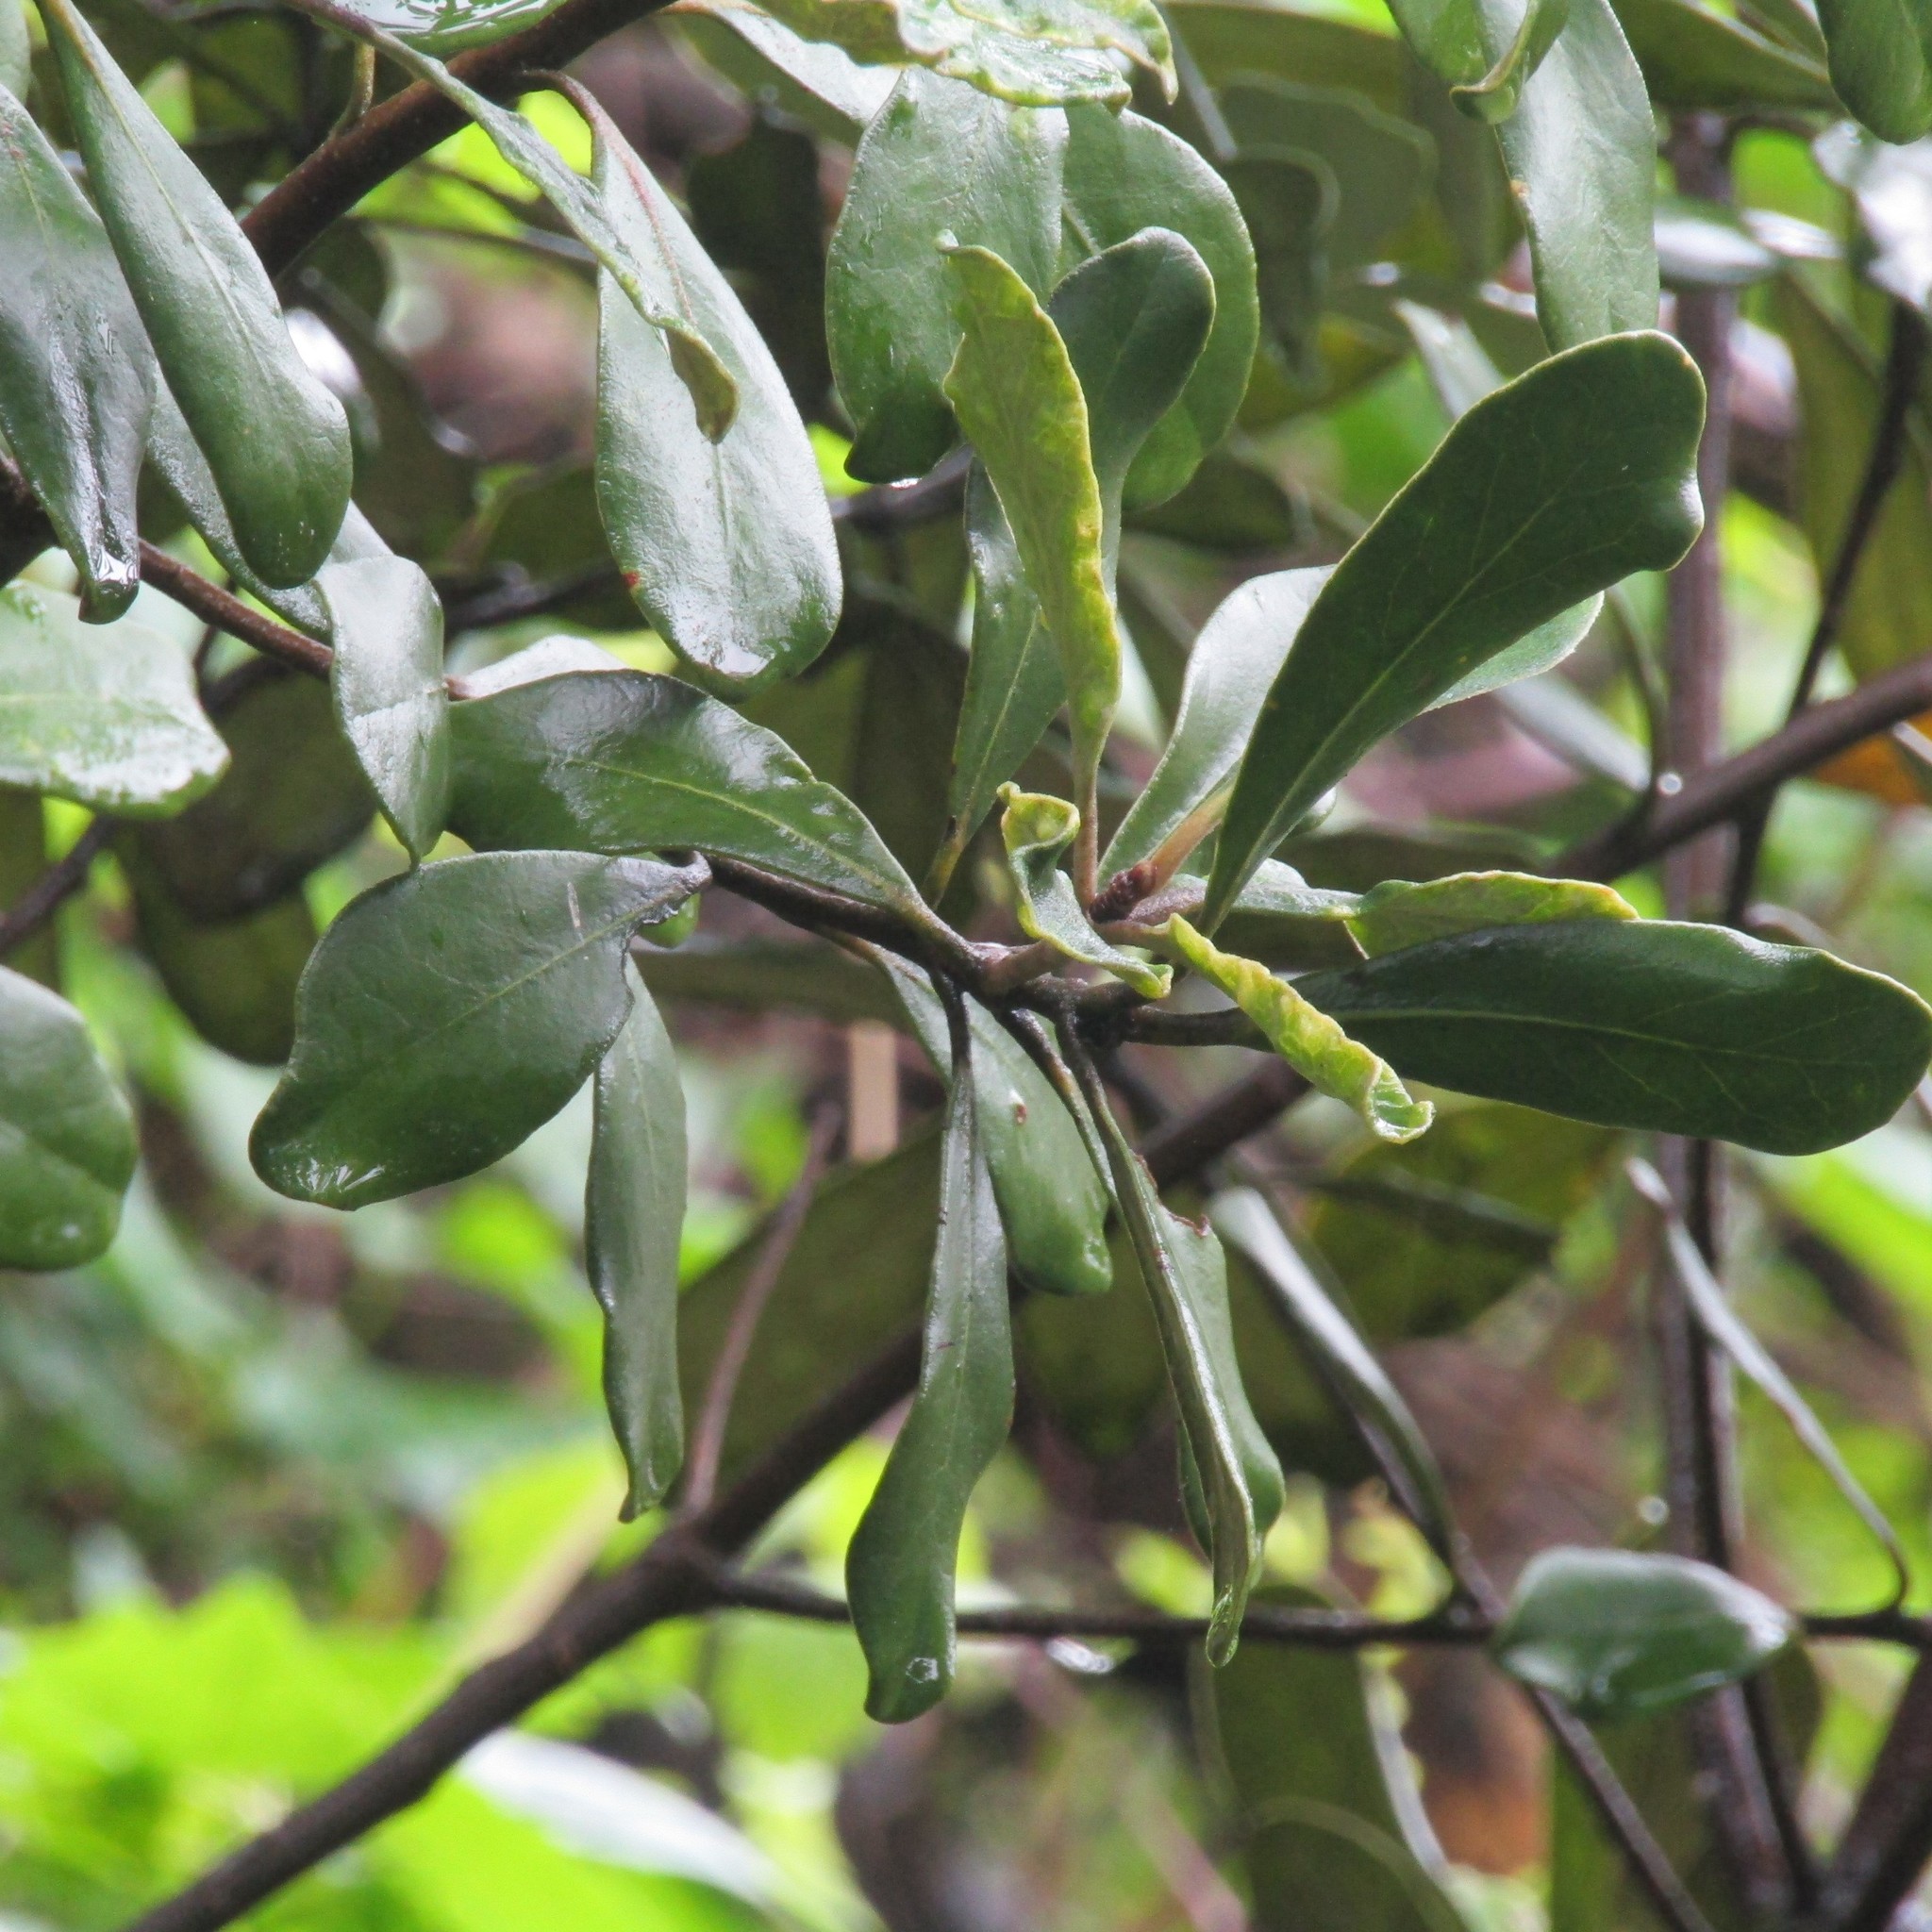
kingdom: Plantae
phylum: Tracheophyta
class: Magnoliopsida
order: Apiales
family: Pittosporaceae
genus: Pittosporum
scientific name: Pittosporum crassifolium
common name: Karo
